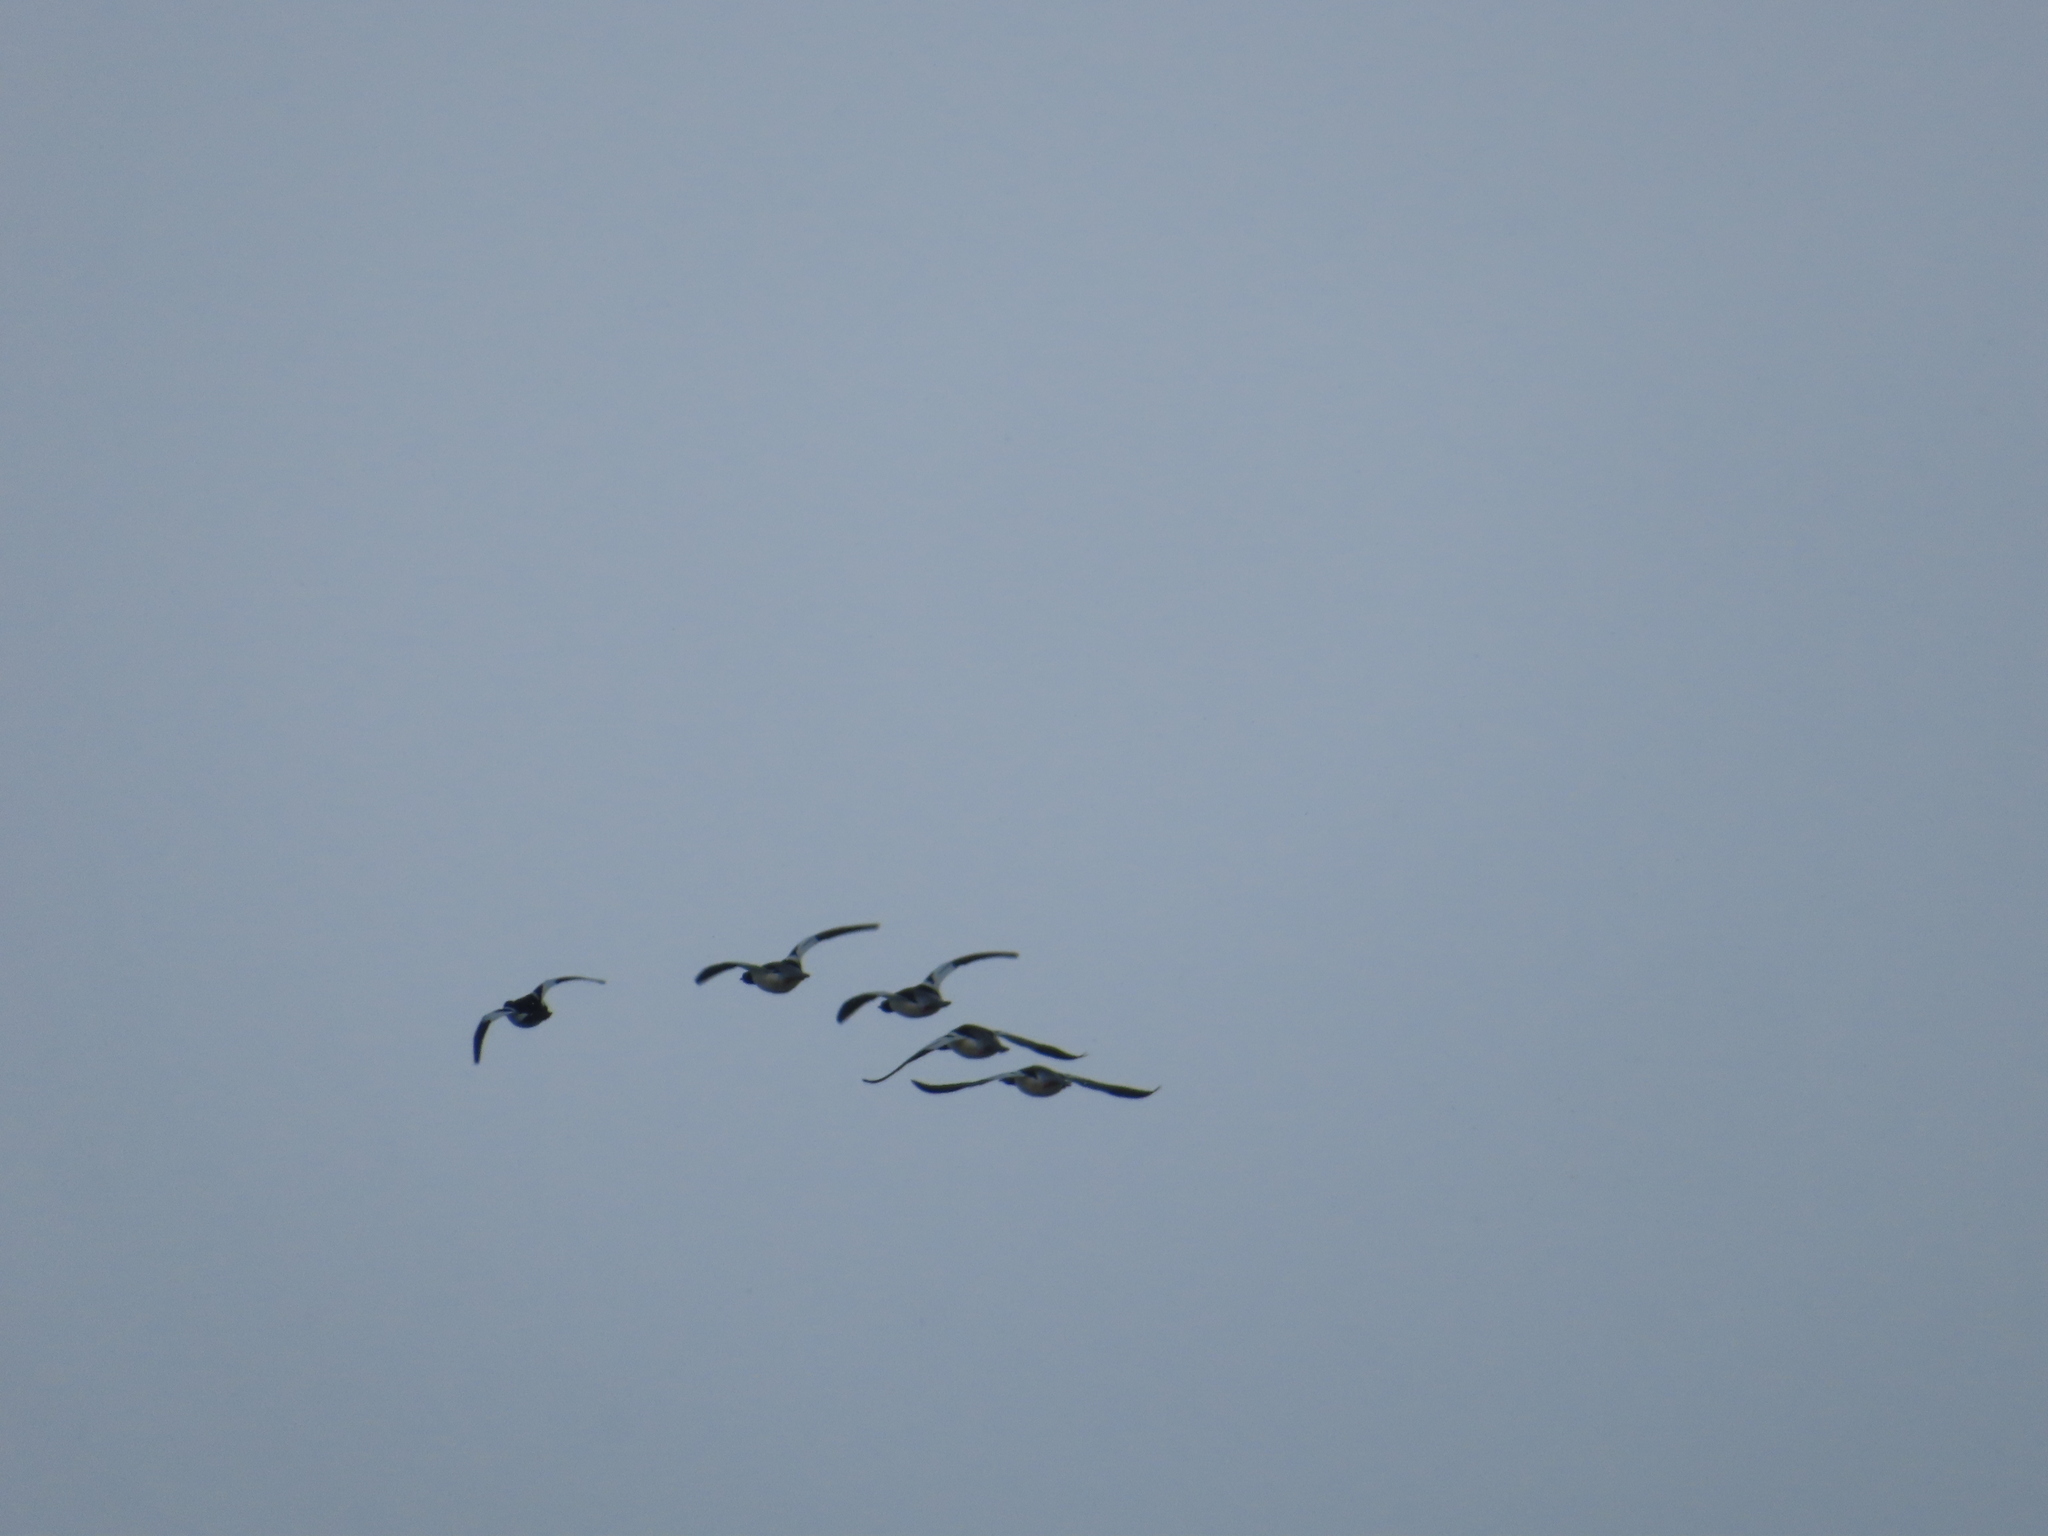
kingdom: Animalia
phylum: Chordata
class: Aves
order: Anseriformes
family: Anatidae
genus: Mergus
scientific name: Mergus merganser
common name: Common merganser
